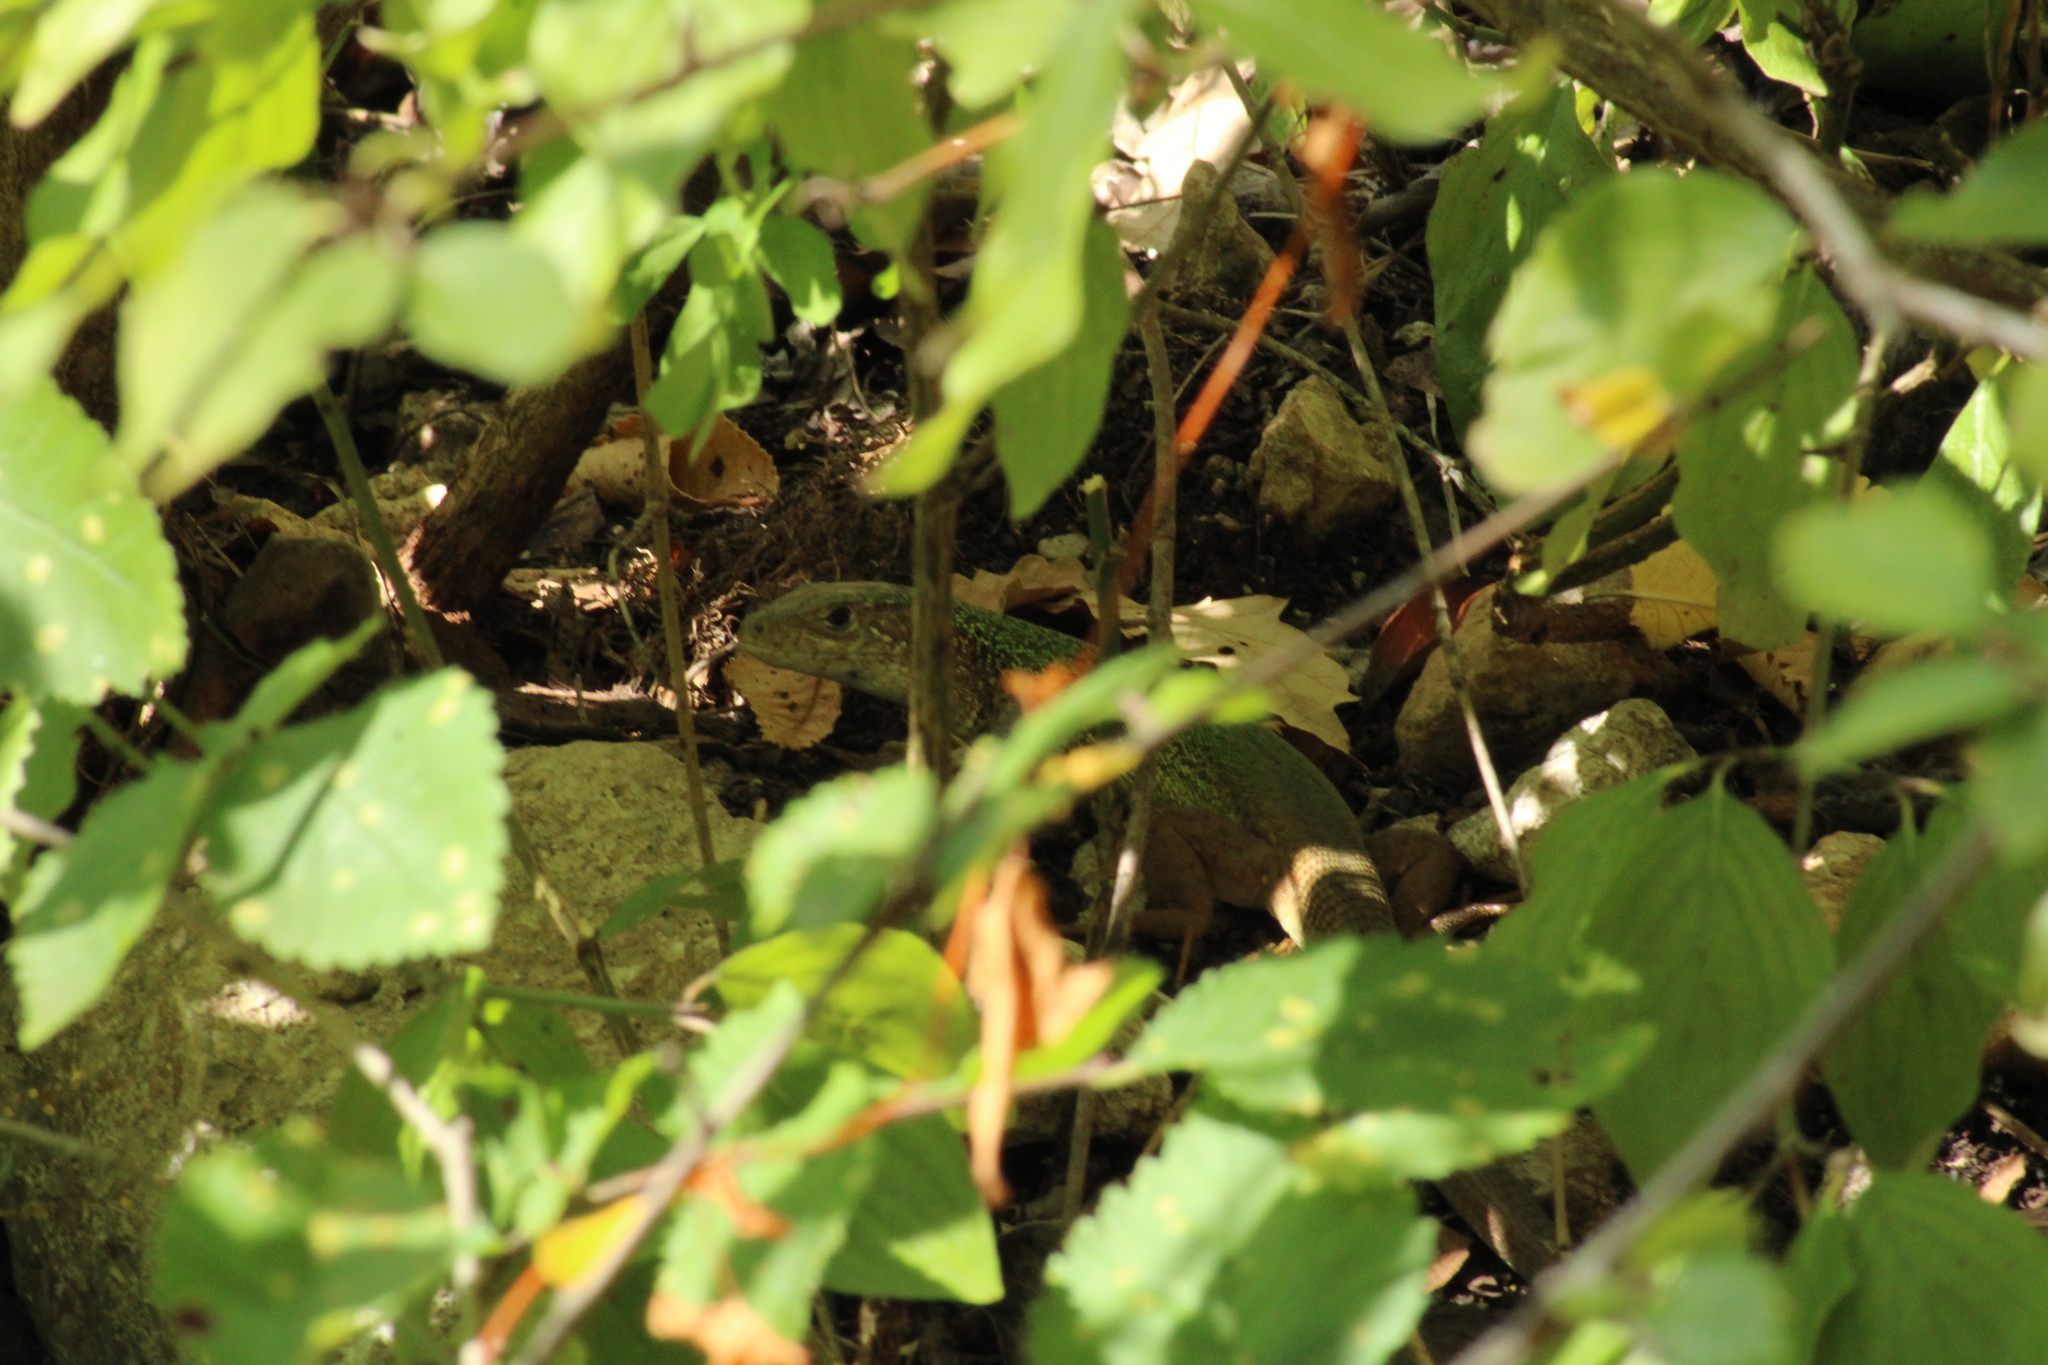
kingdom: Animalia
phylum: Chordata
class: Squamata
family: Lacertidae
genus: Lacerta
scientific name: Lacerta viridis
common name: European green lizard
